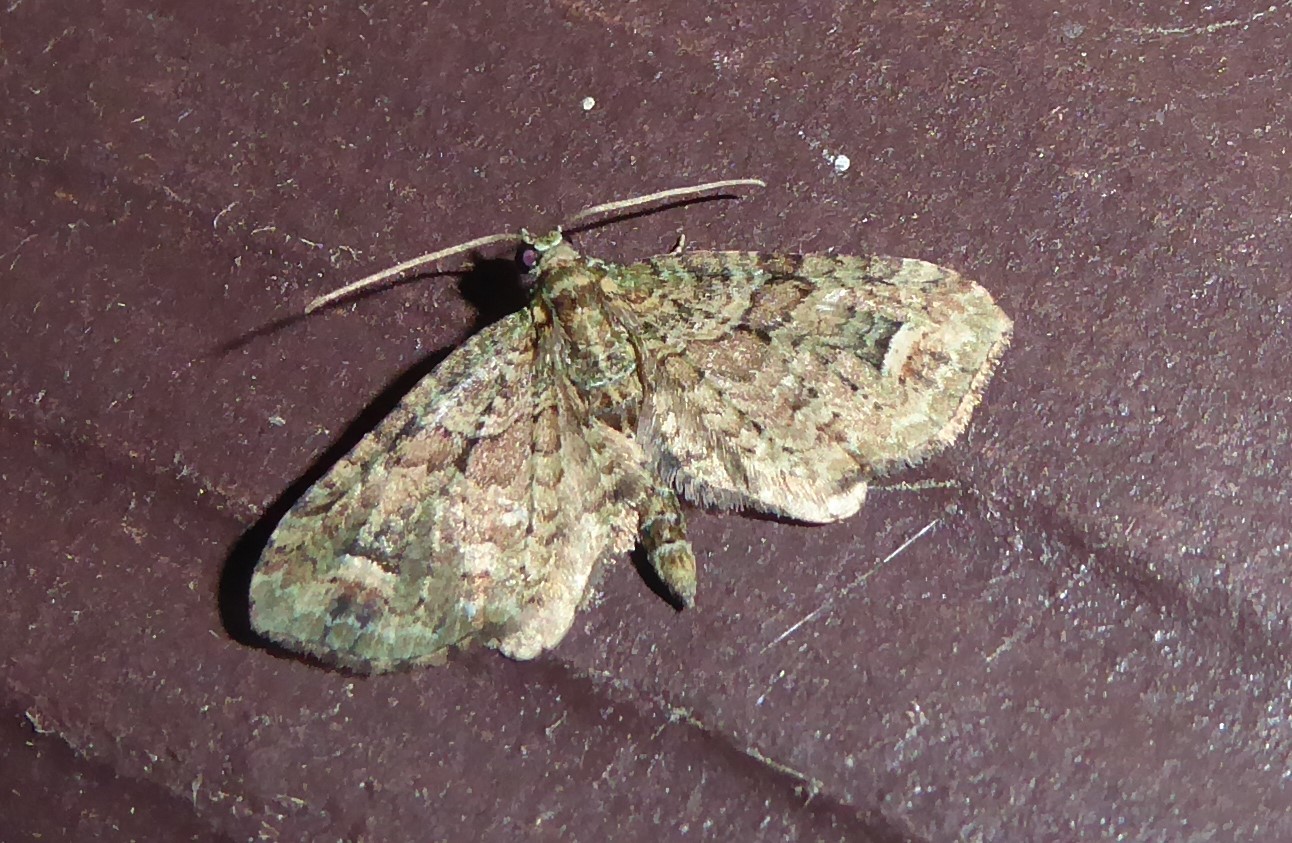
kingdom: Animalia
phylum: Arthropoda
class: Insecta
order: Lepidoptera
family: Geometridae
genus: Idaea
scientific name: Idaea mutanda
